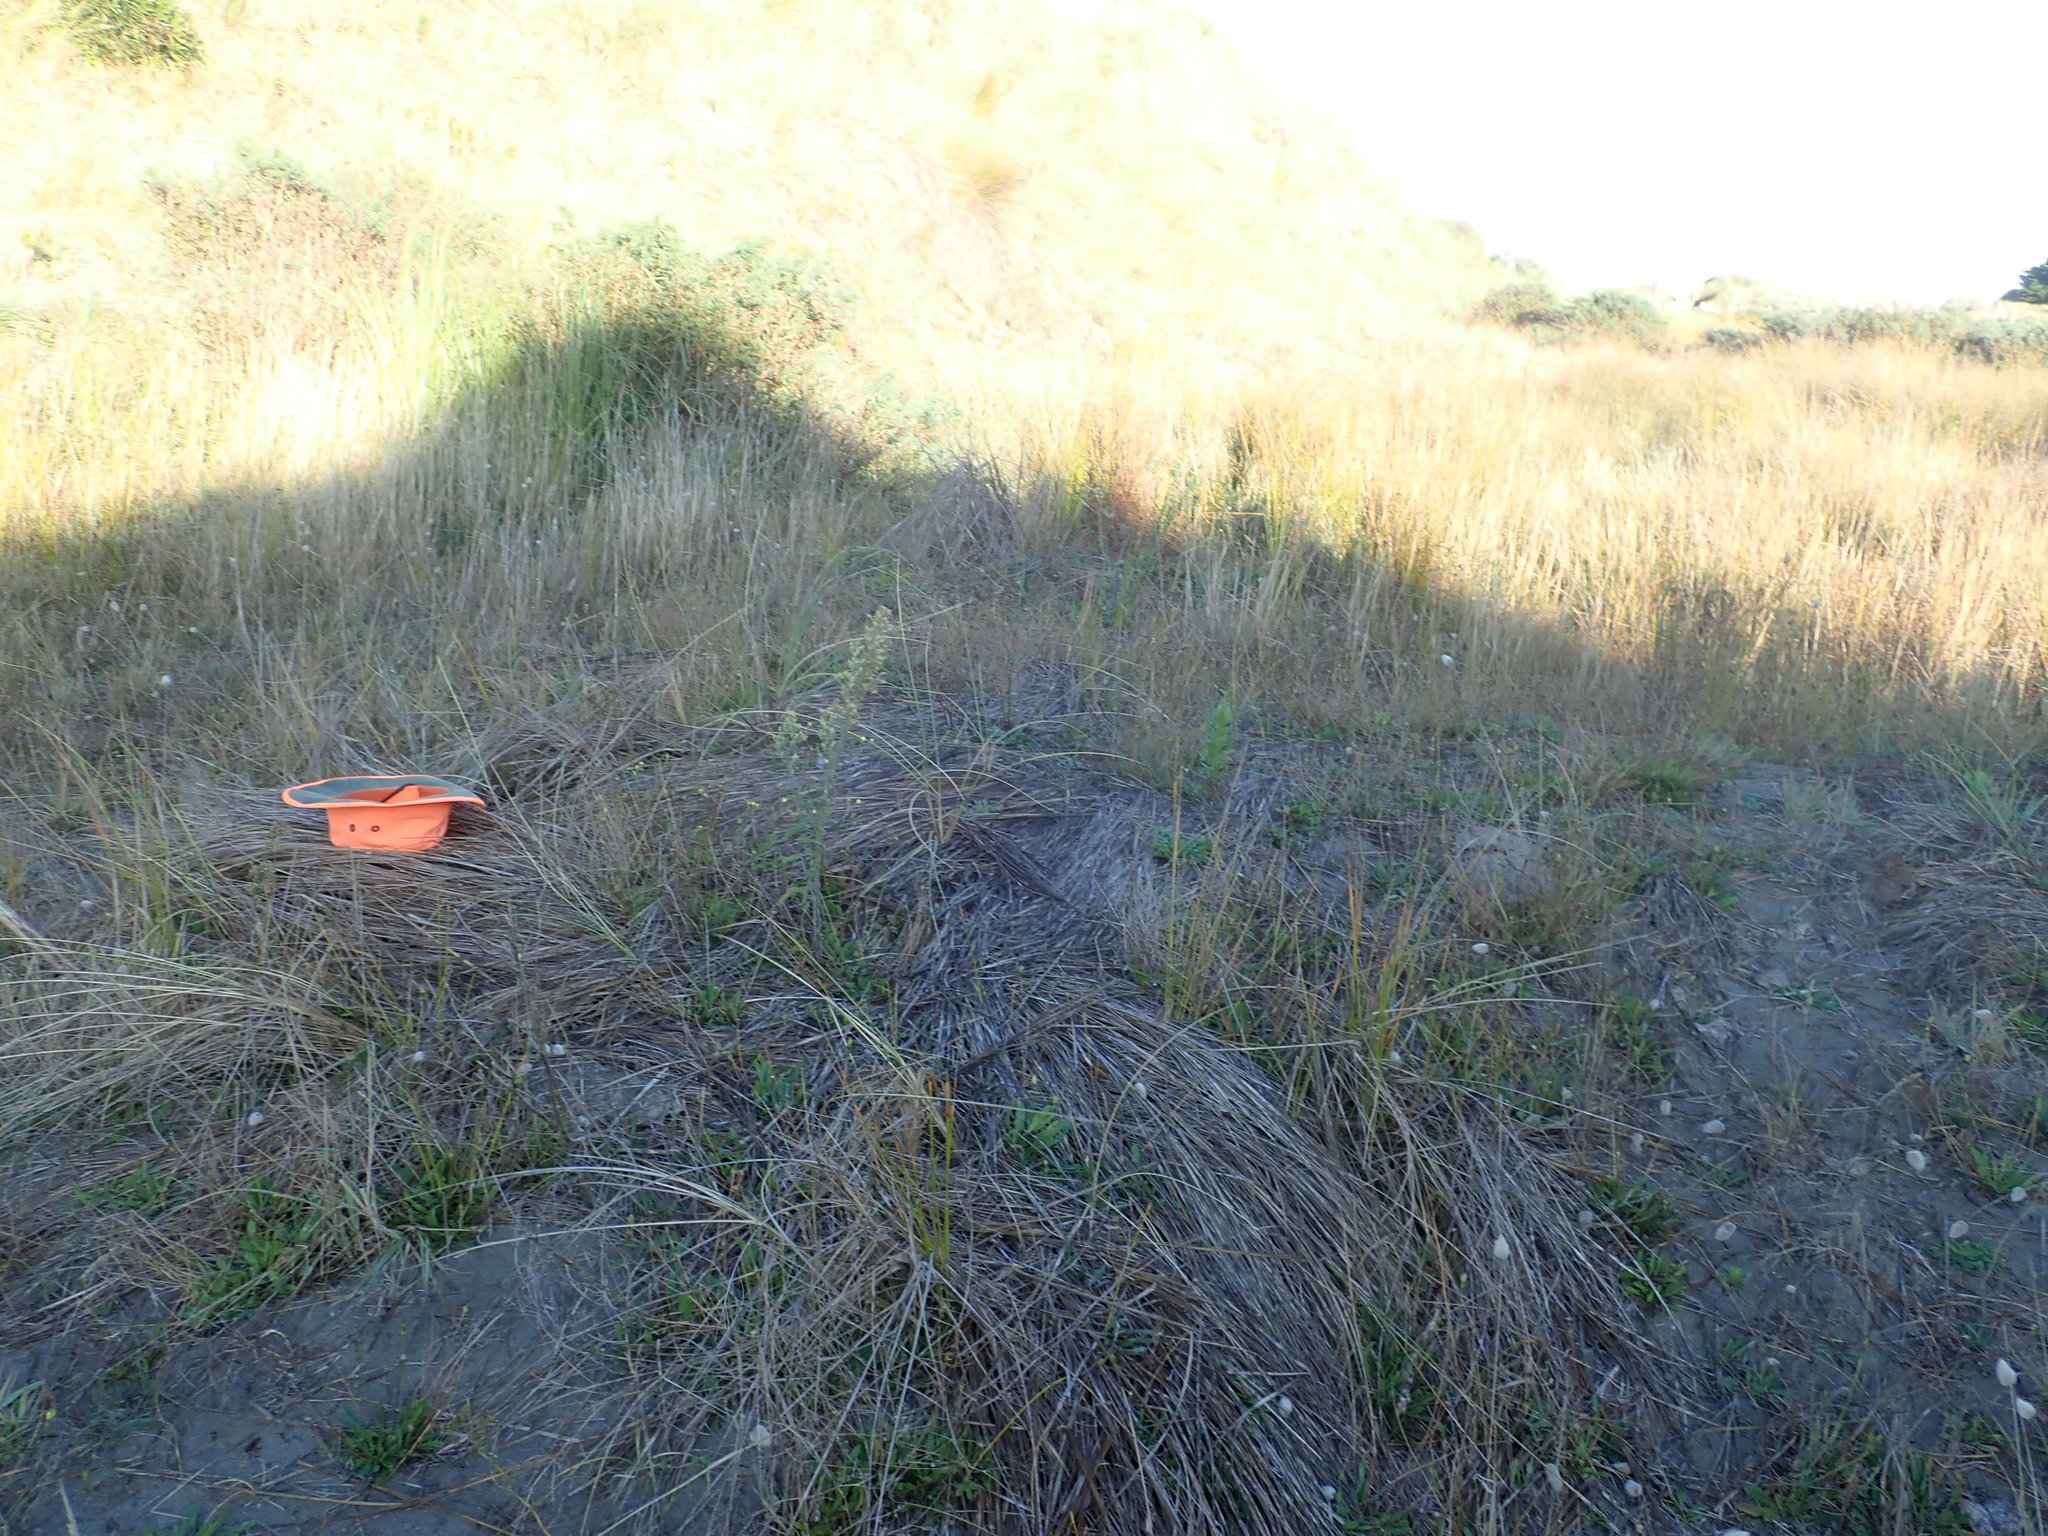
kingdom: Animalia
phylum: Mollusca
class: Gastropoda
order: Stylommatophora
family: Helicidae
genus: Cornu
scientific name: Cornu aspersum
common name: Brown garden snail
